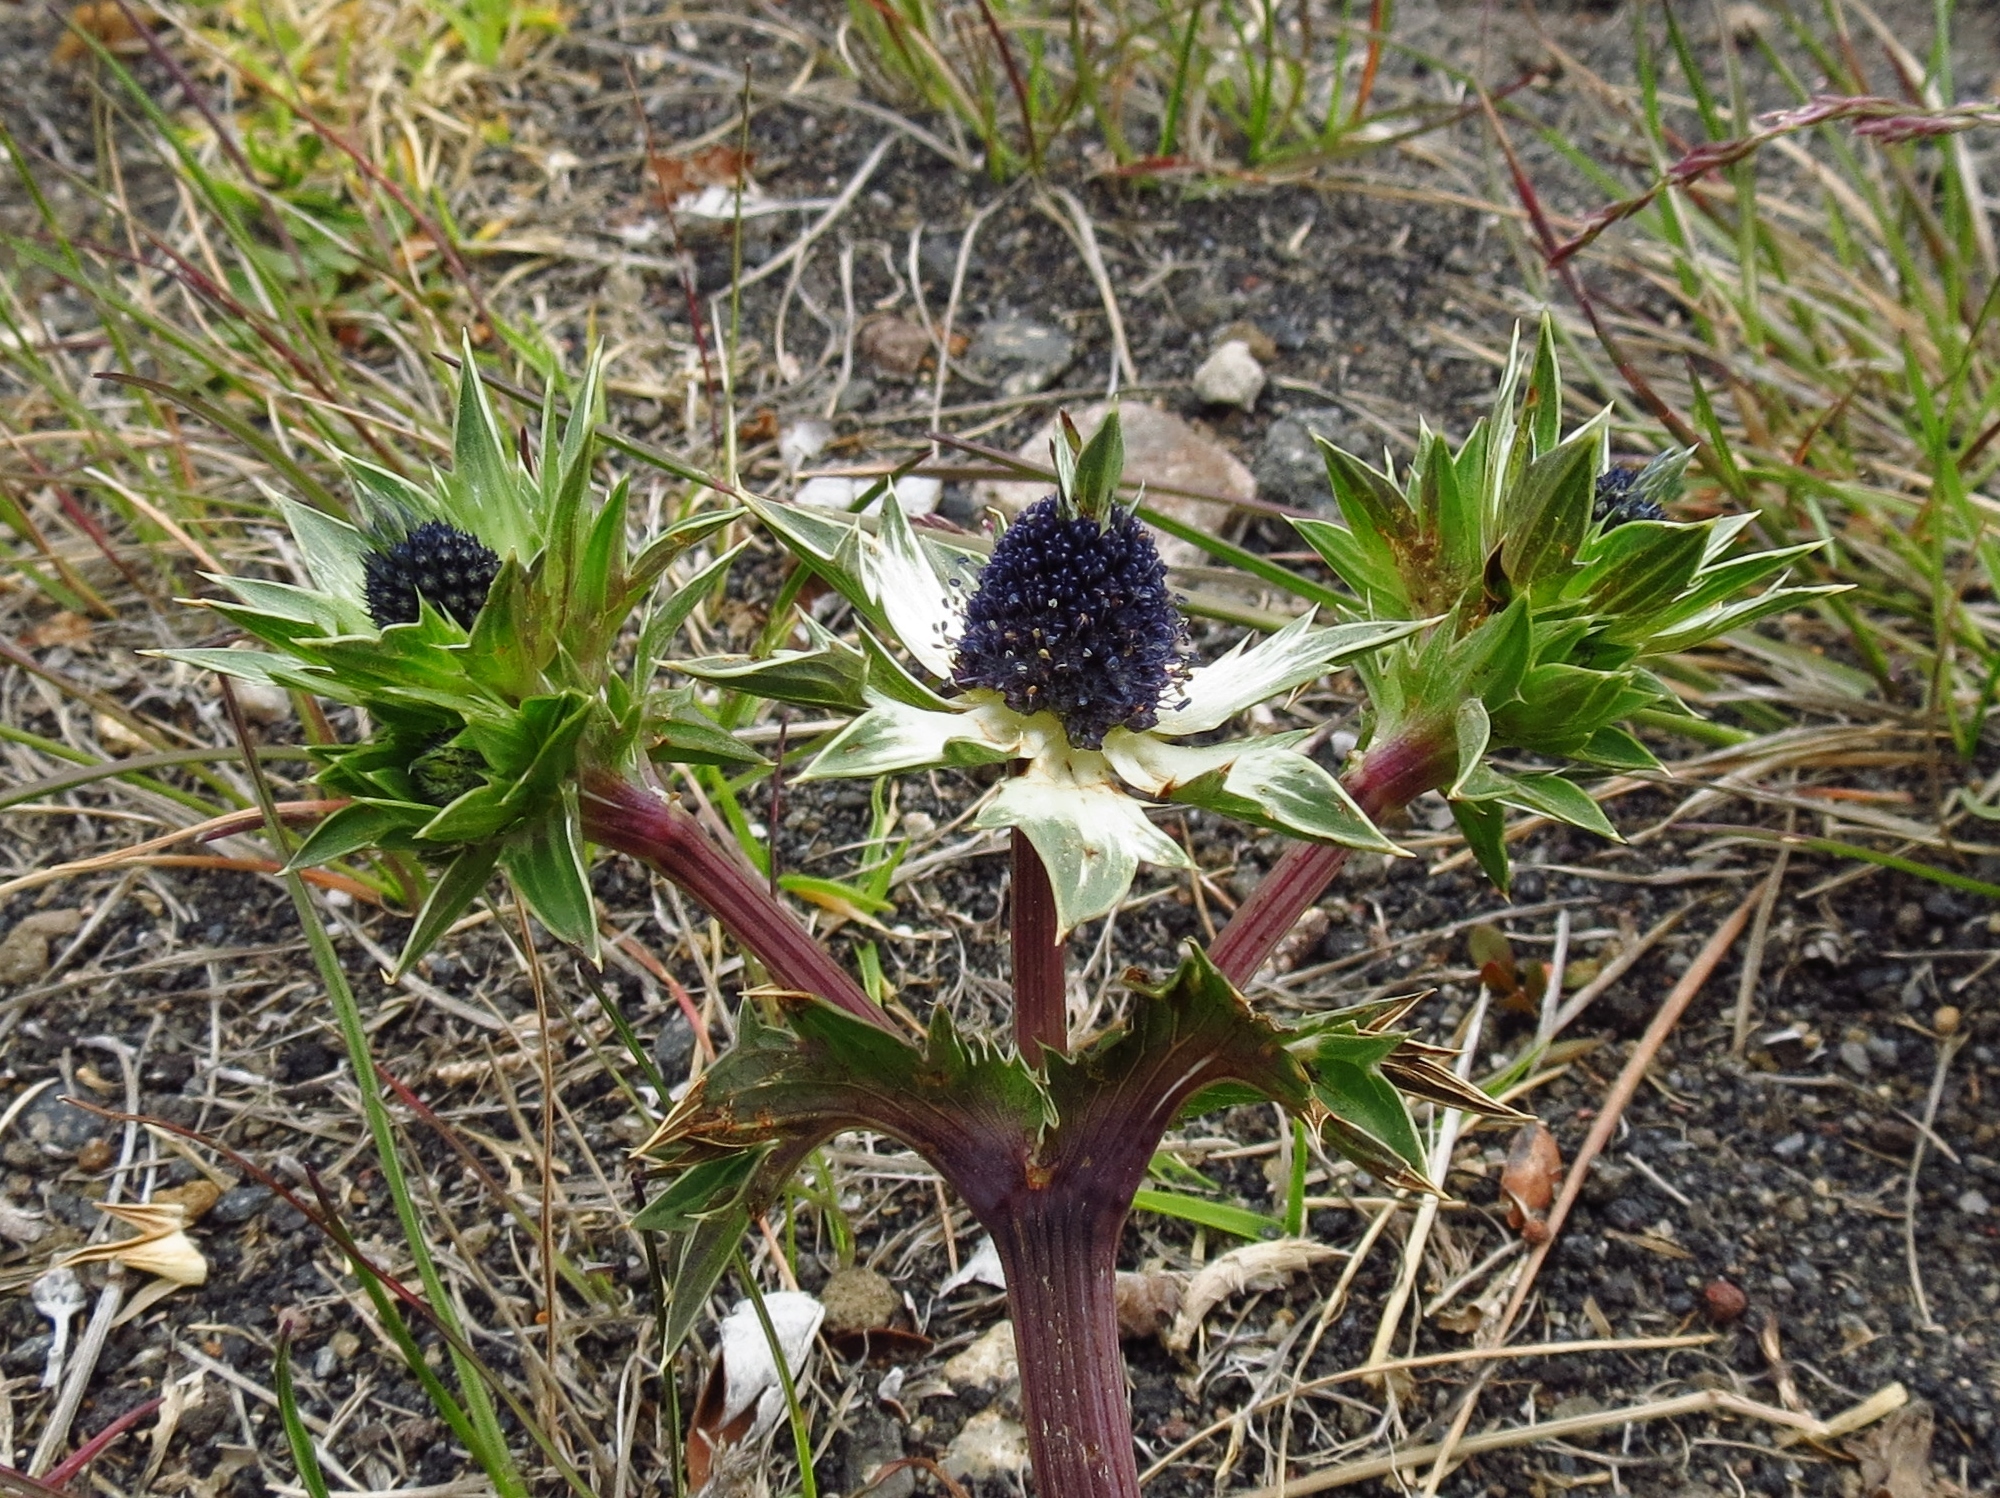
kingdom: Plantae
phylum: Tracheophyta
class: Magnoliopsida
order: Apiales
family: Apiaceae
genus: Eryngium
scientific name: Eryngium carlinae
